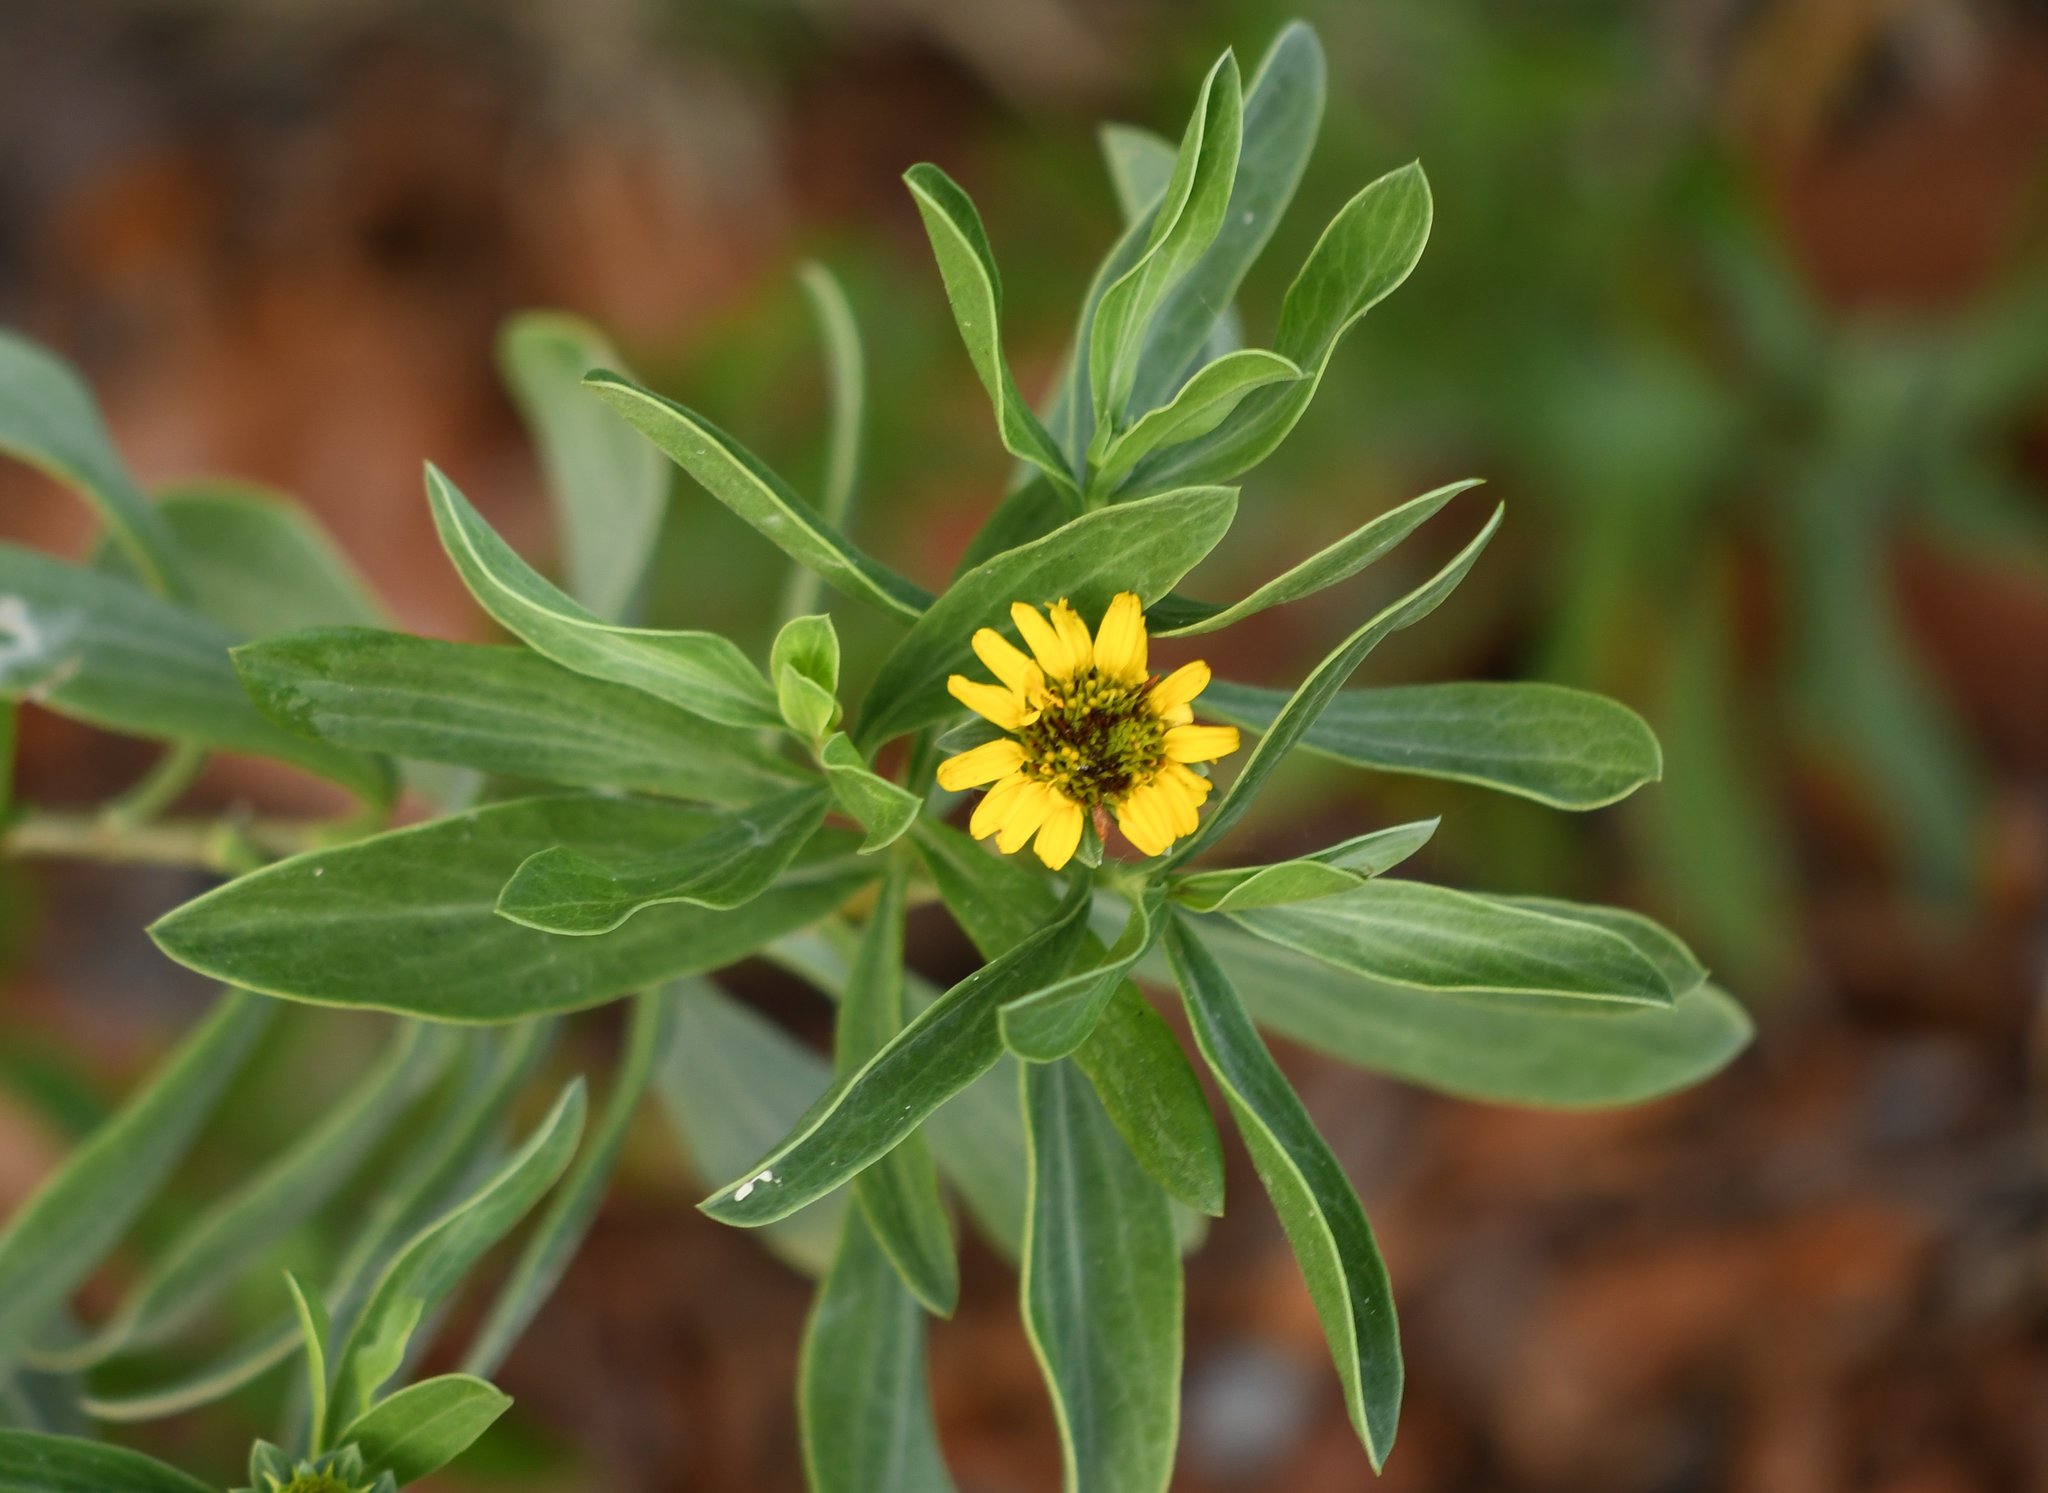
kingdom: Plantae
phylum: Tracheophyta
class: Magnoliopsida
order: Asterales
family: Asteraceae
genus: Borrichia
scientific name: Borrichia frutescens
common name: Sea oxeye
